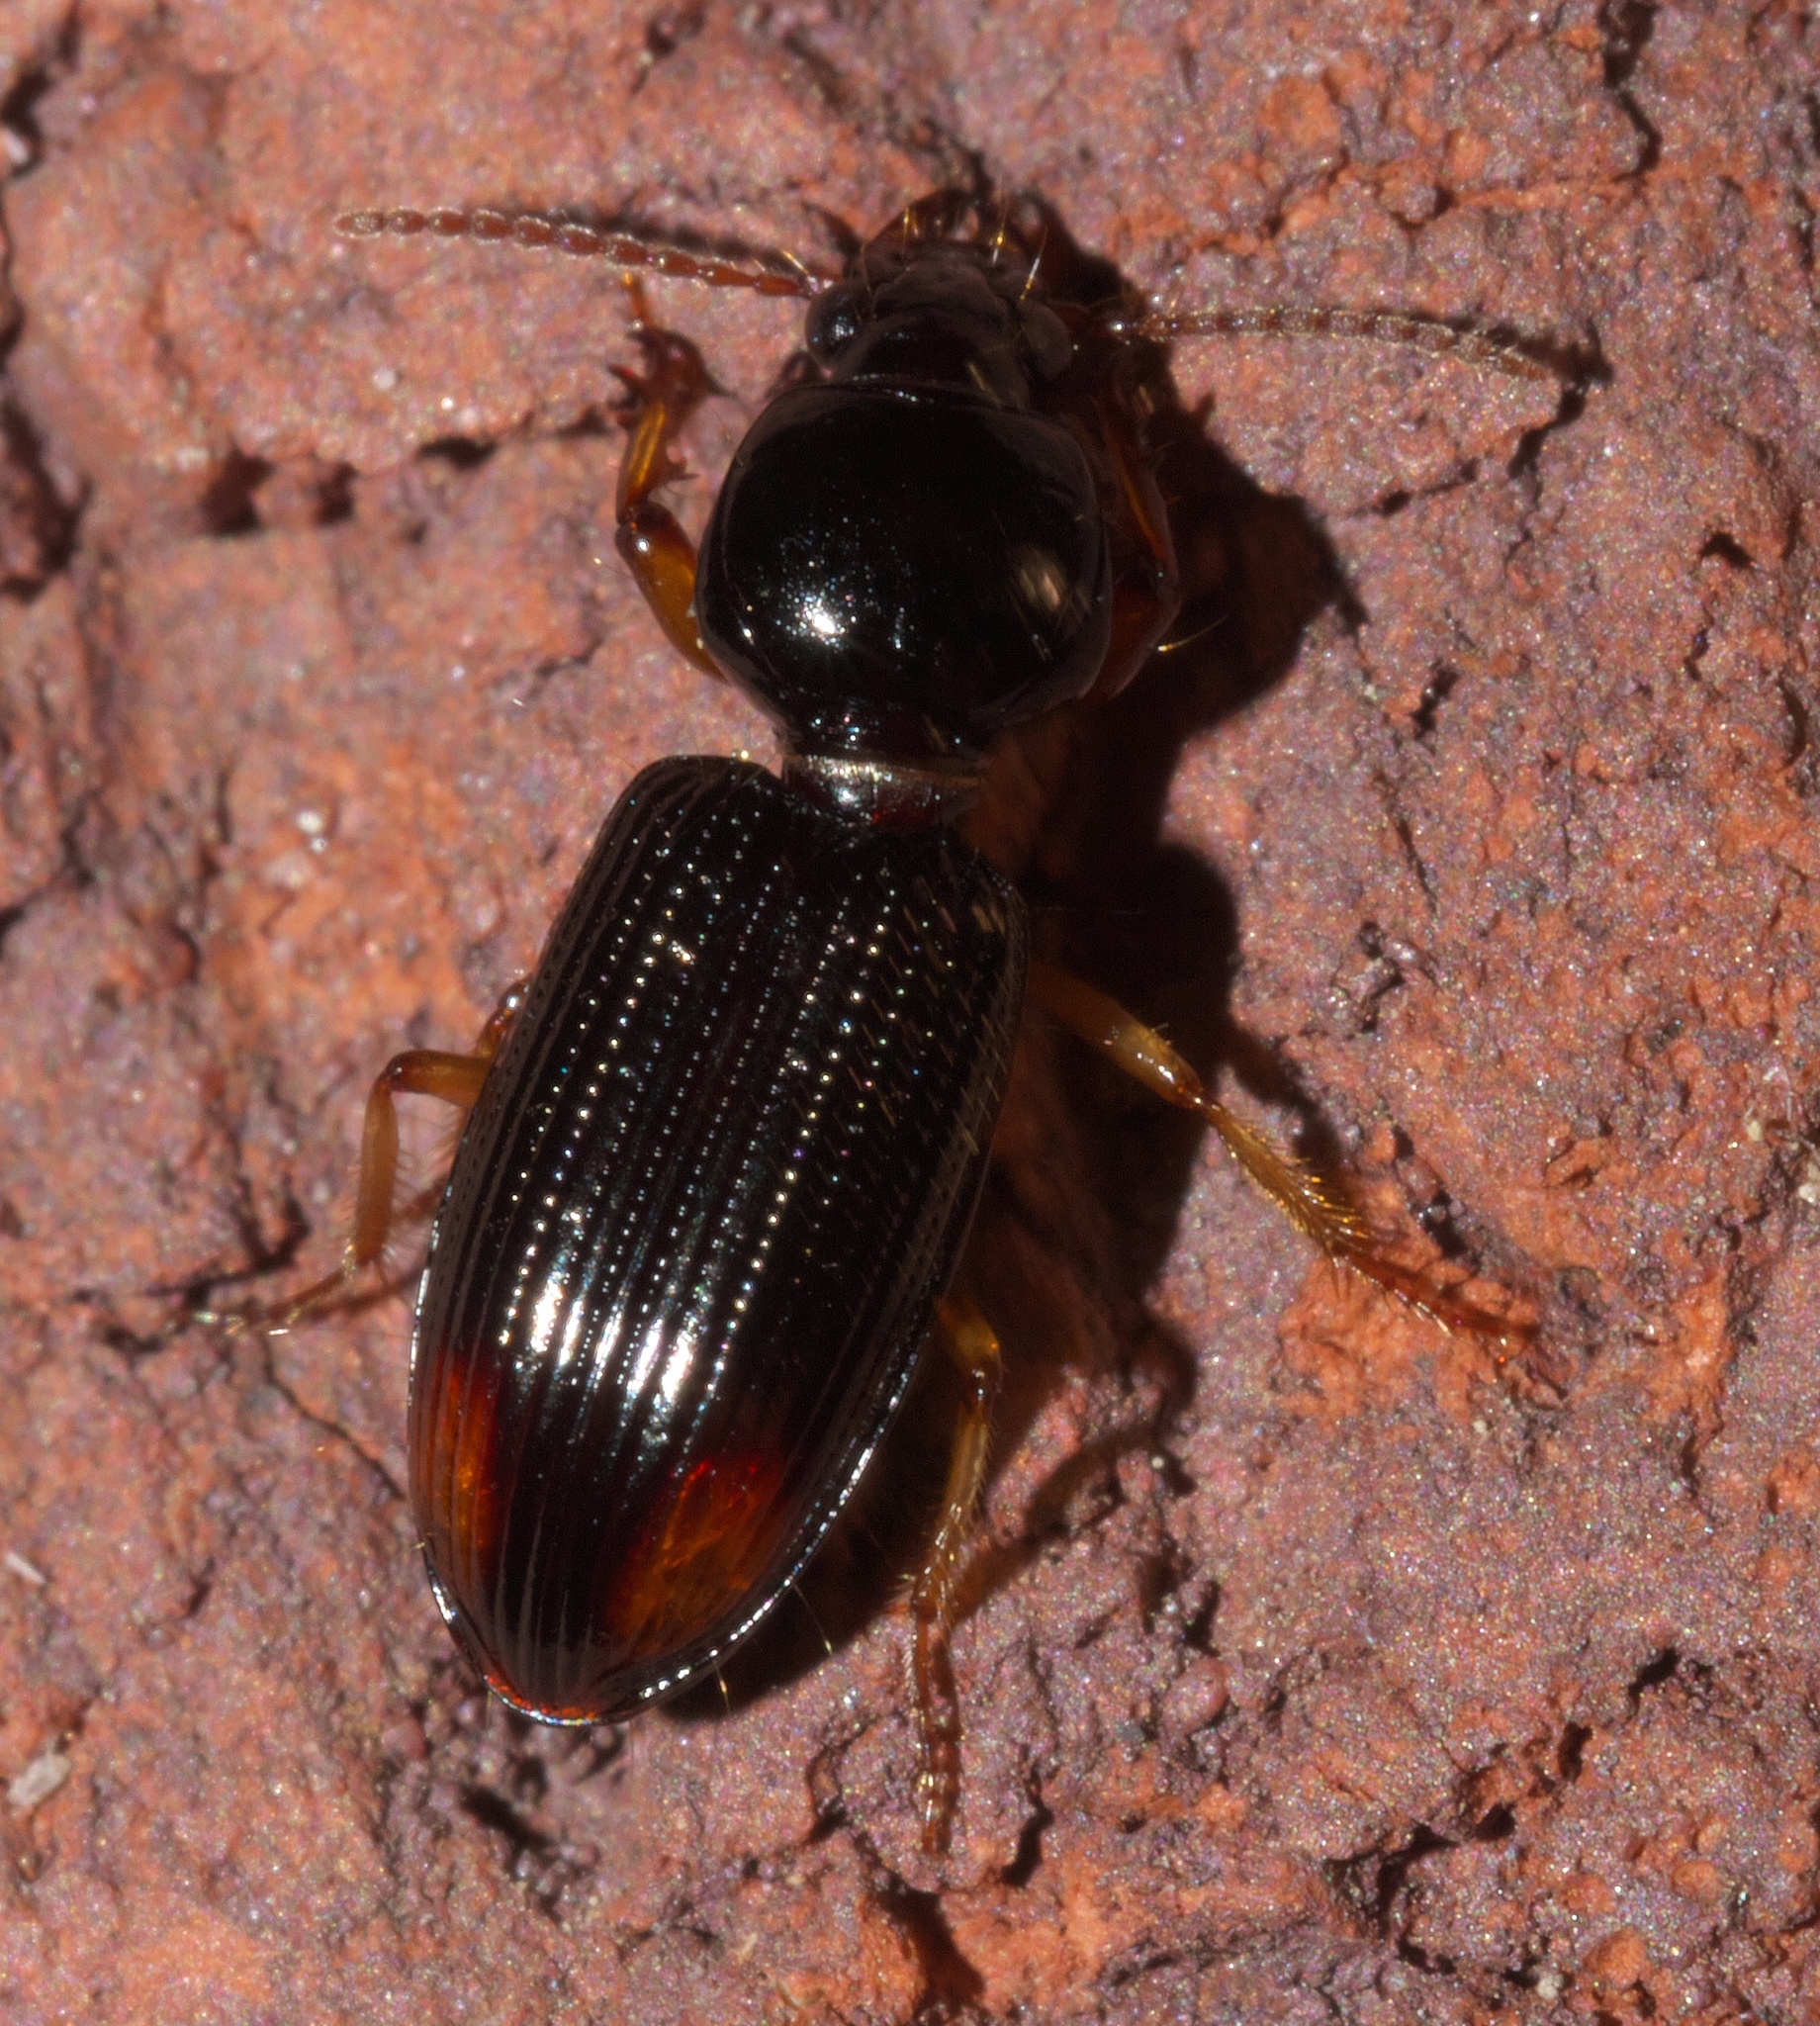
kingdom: Animalia
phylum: Arthropoda
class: Insecta
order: Coleoptera
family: Carabidae
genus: Aspidoglossa
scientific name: Aspidoglossa subangulata
